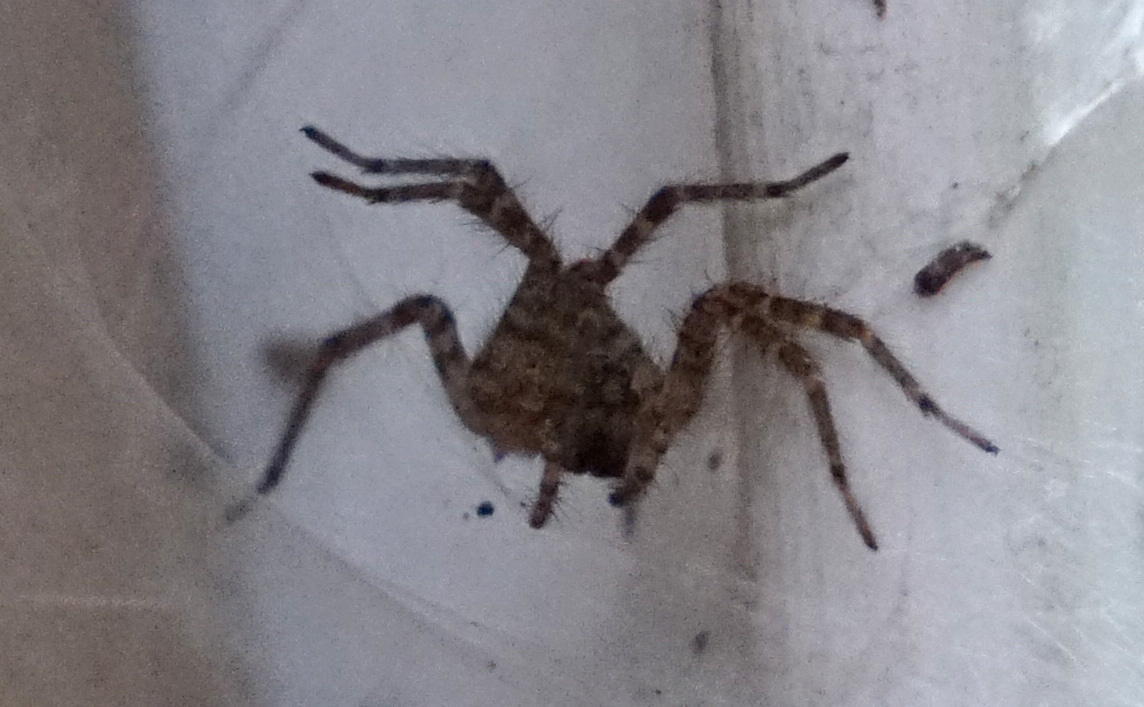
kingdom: Animalia
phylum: Arthropoda
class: Arachnida
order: Araneae
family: Agelenidae
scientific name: Agelenidae
